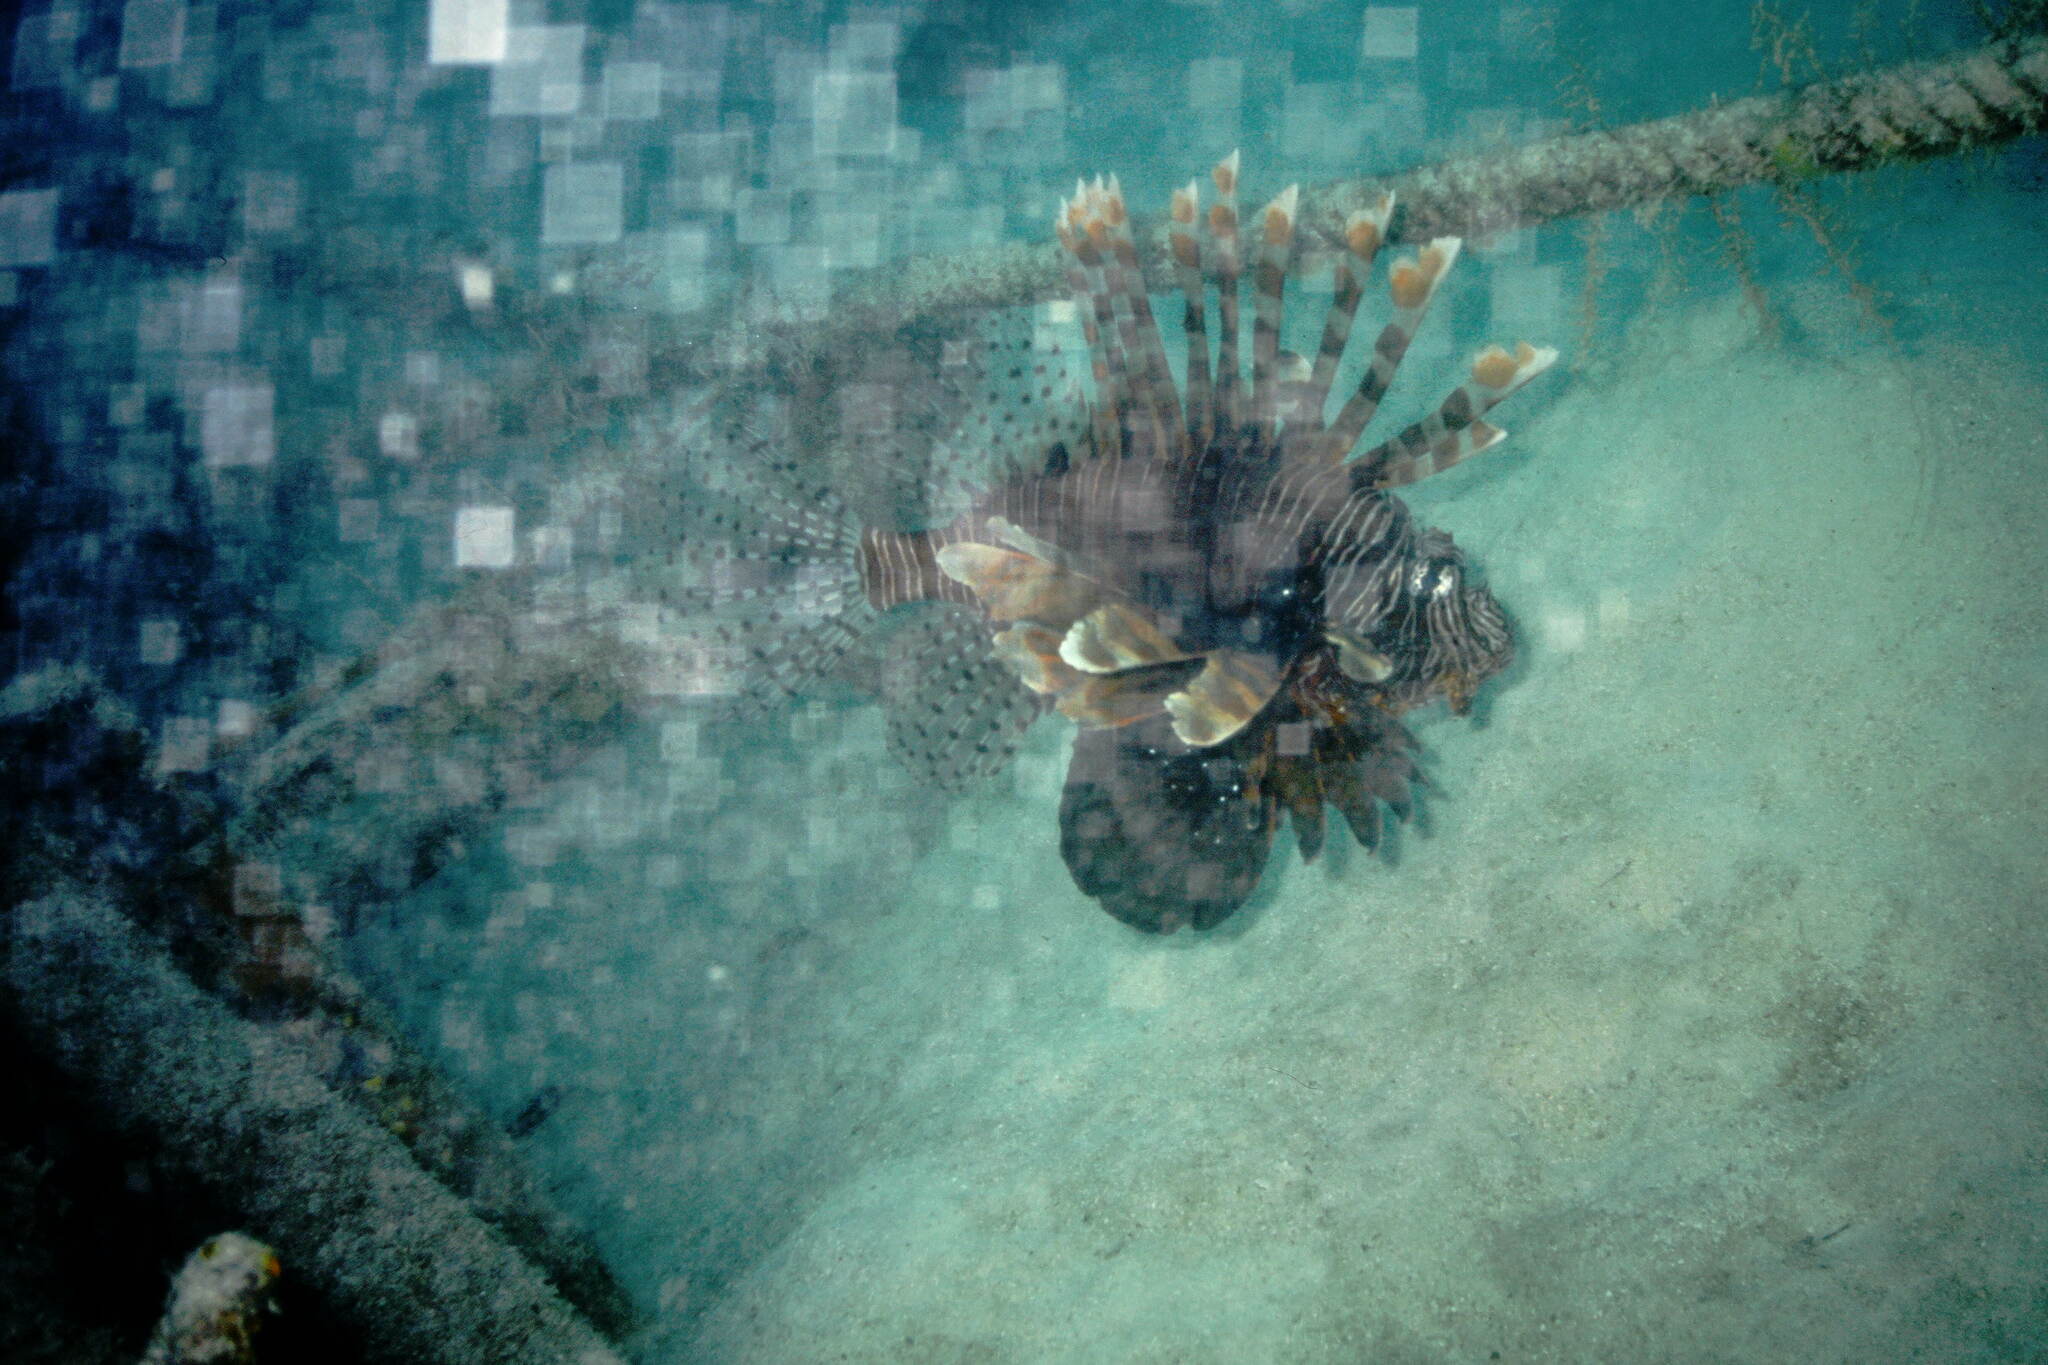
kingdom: Animalia
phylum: Chordata
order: Scorpaeniformes
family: Scorpaenidae
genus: Pterois
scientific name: Pterois volitans
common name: Lionfish
